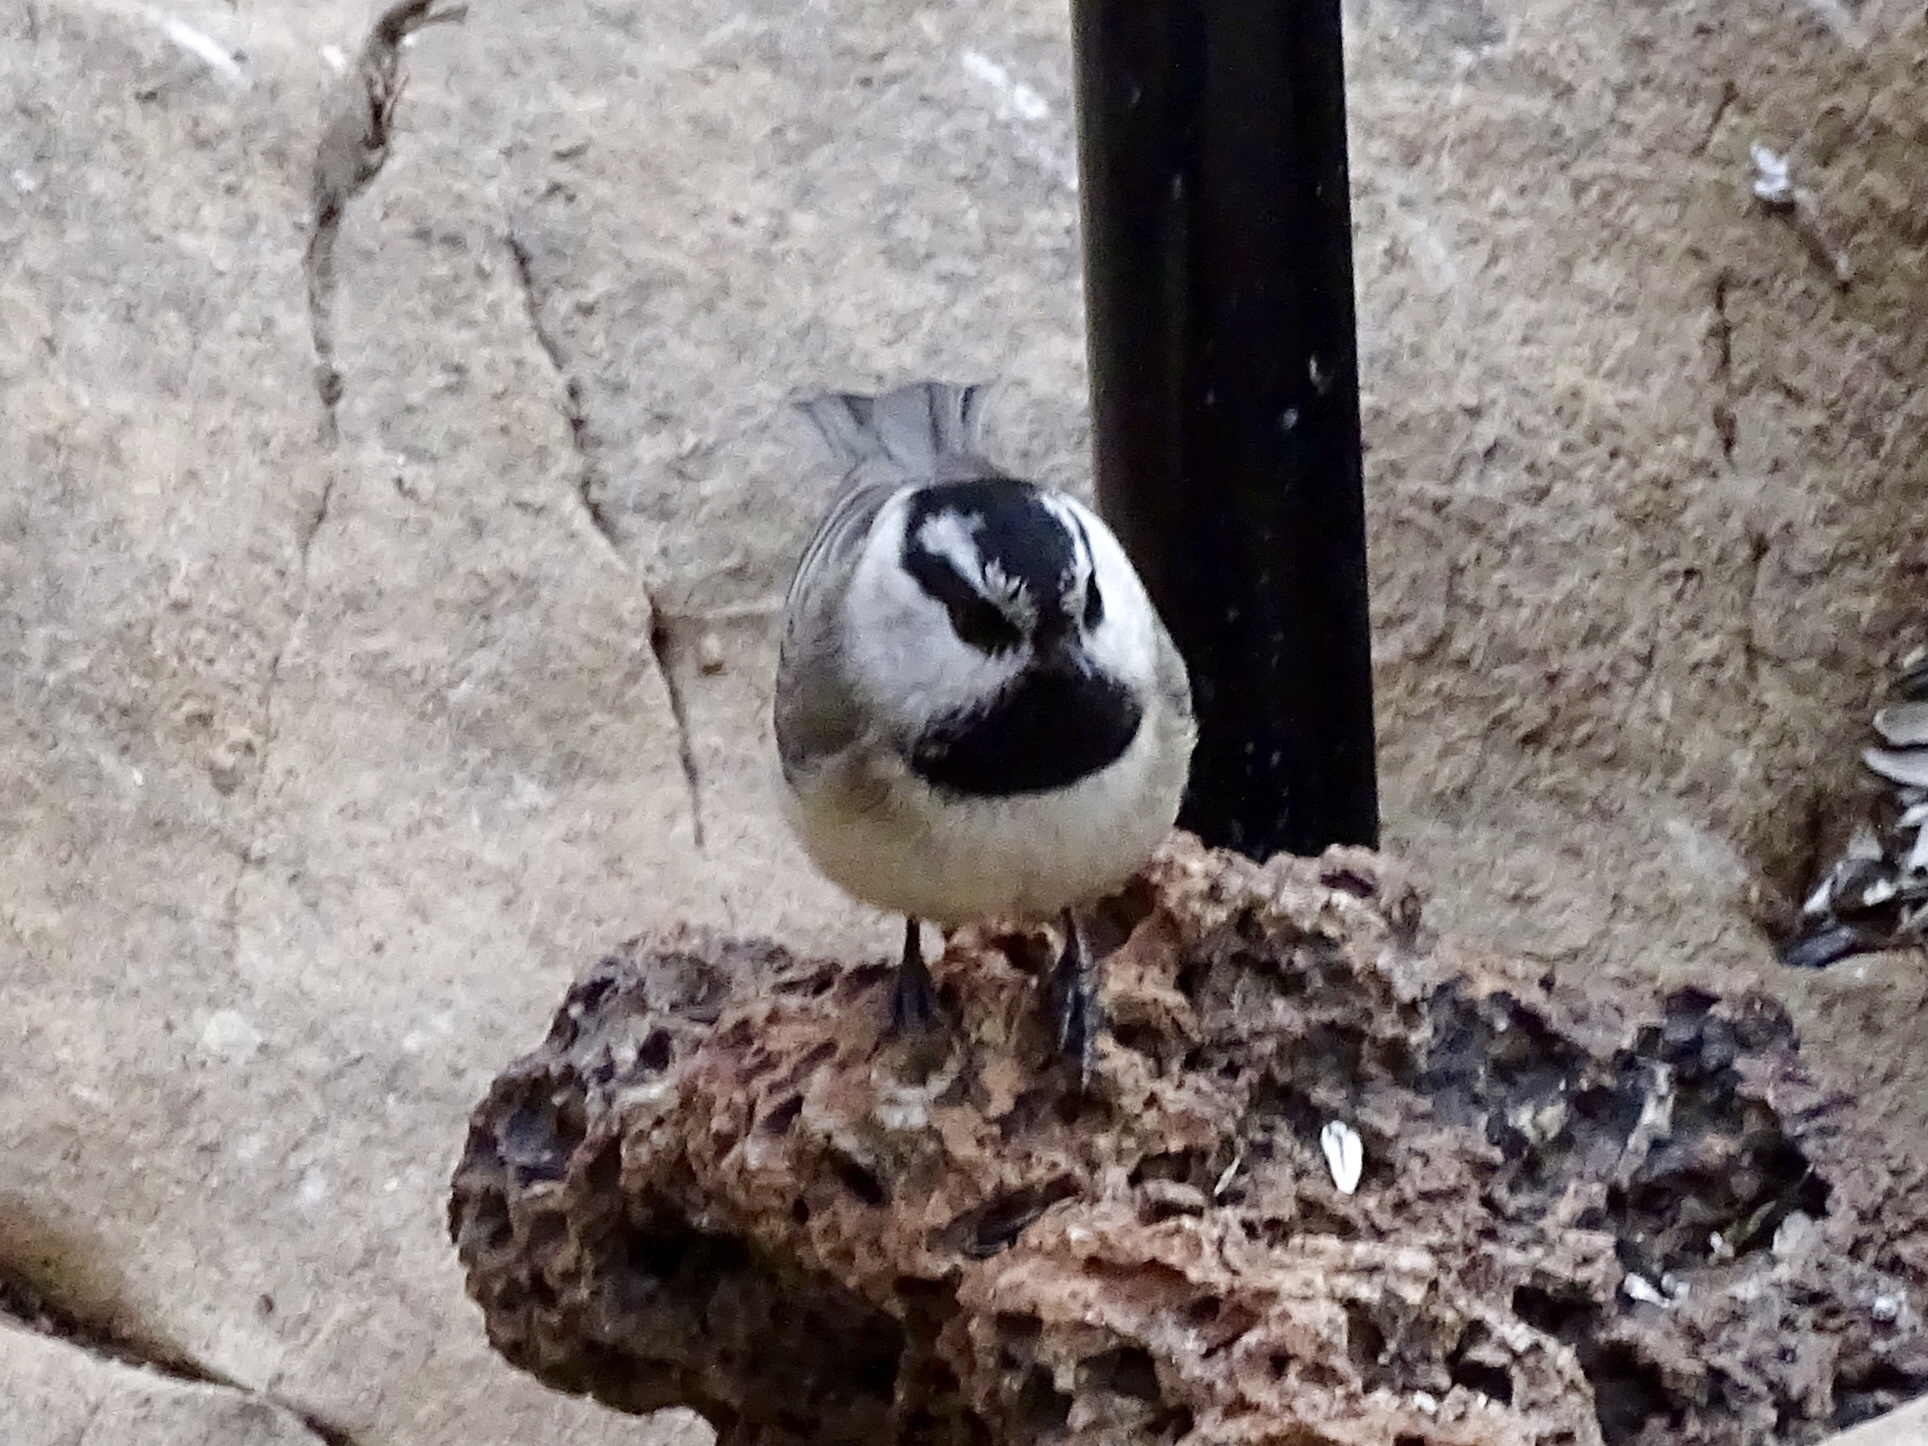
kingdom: Animalia
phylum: Chordata
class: Aves
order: Passeriformes
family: Paridae
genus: Poecile
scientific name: Poecile gambeli
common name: Mountain chickadee
